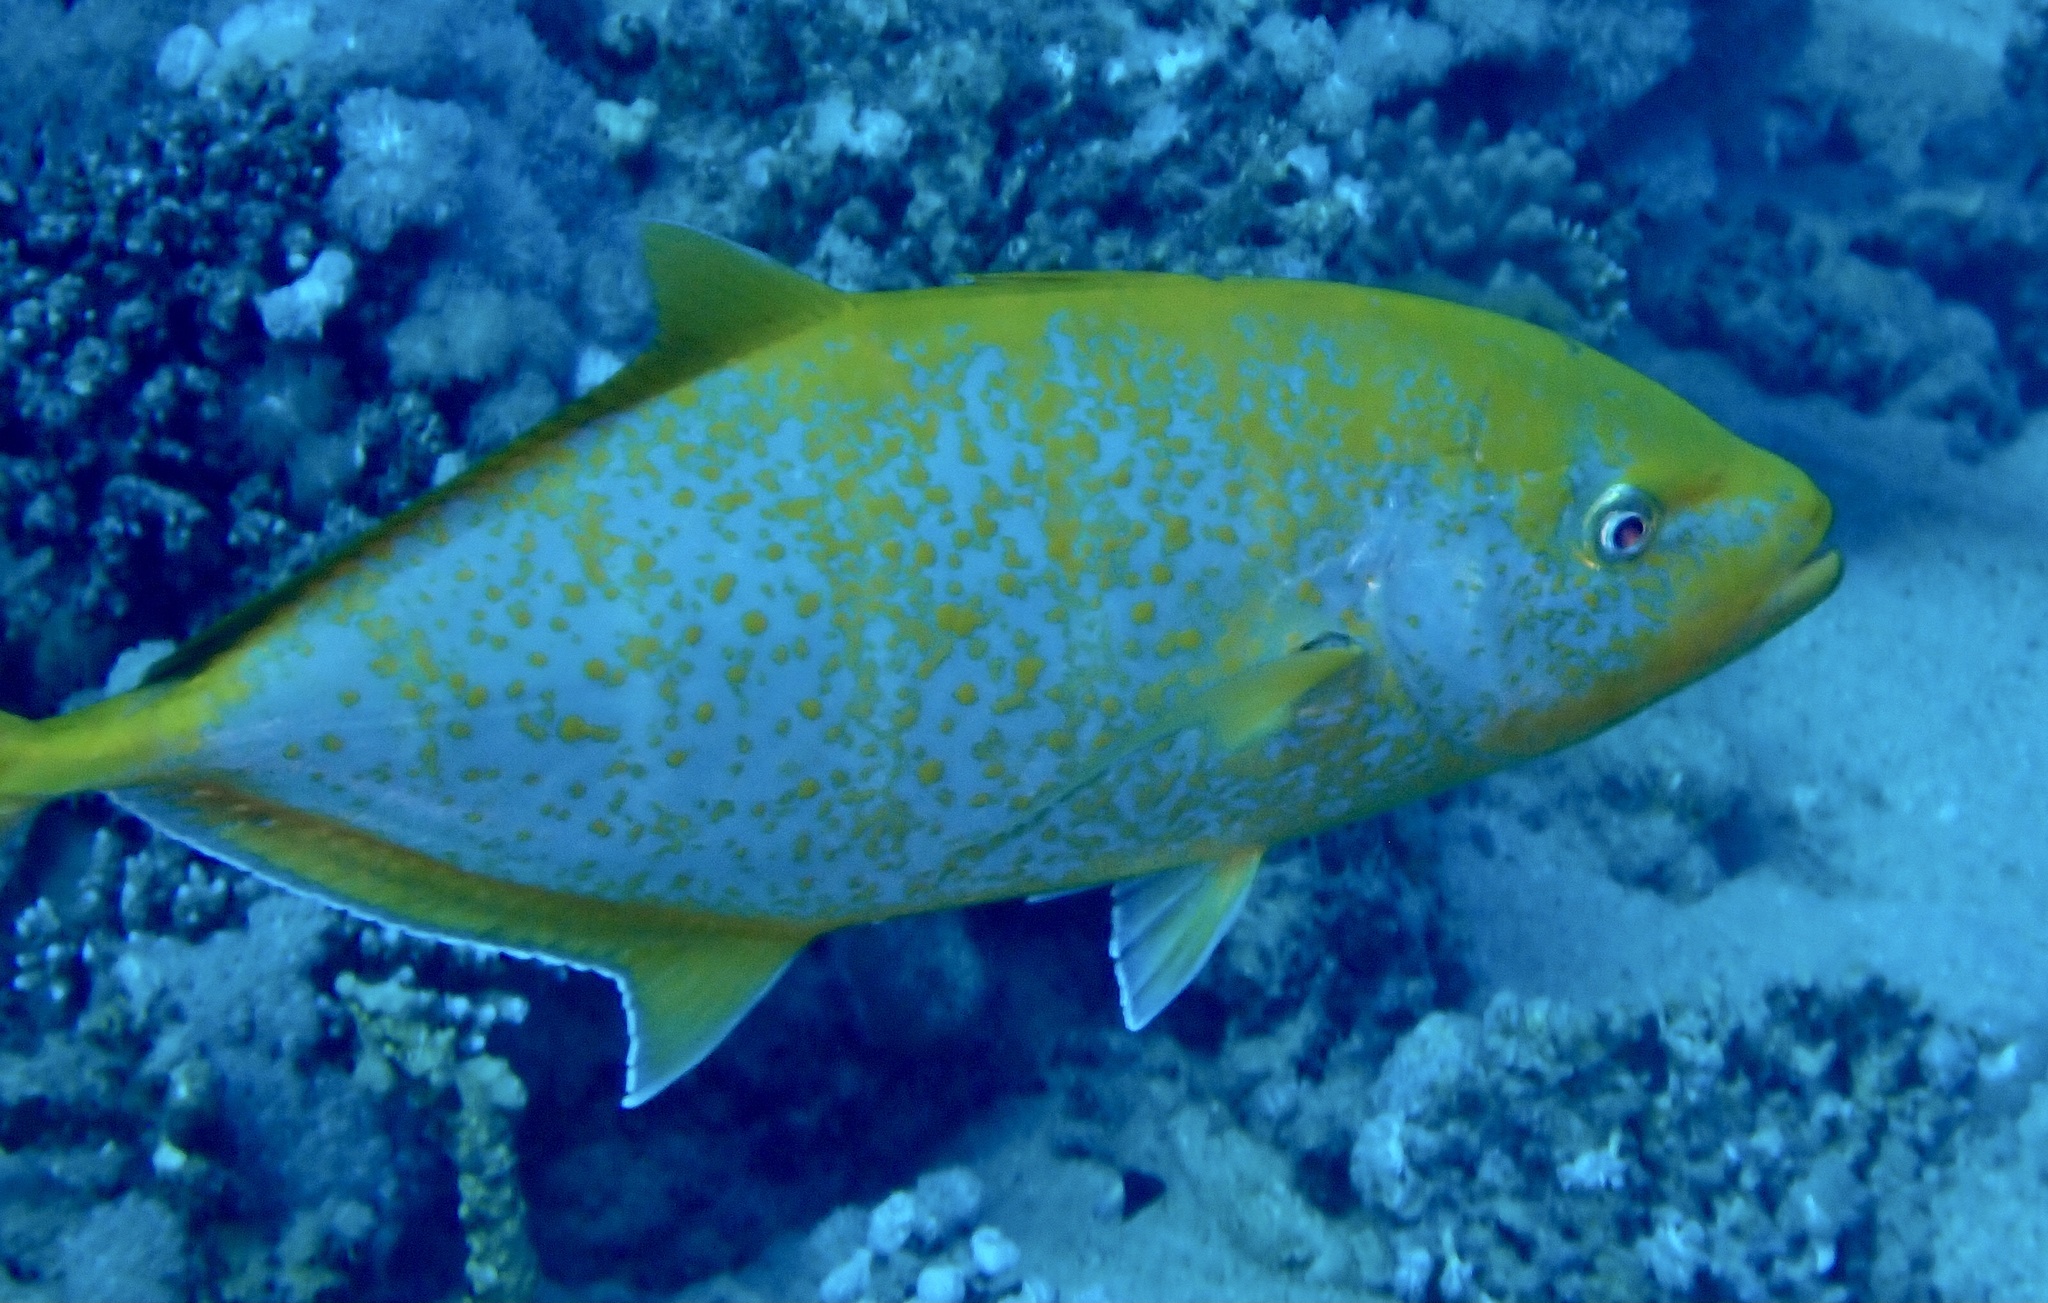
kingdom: Animalia
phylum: Chordata
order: Perciformes
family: Carangidae
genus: Flavocaranx
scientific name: Flavocaranx bajad
